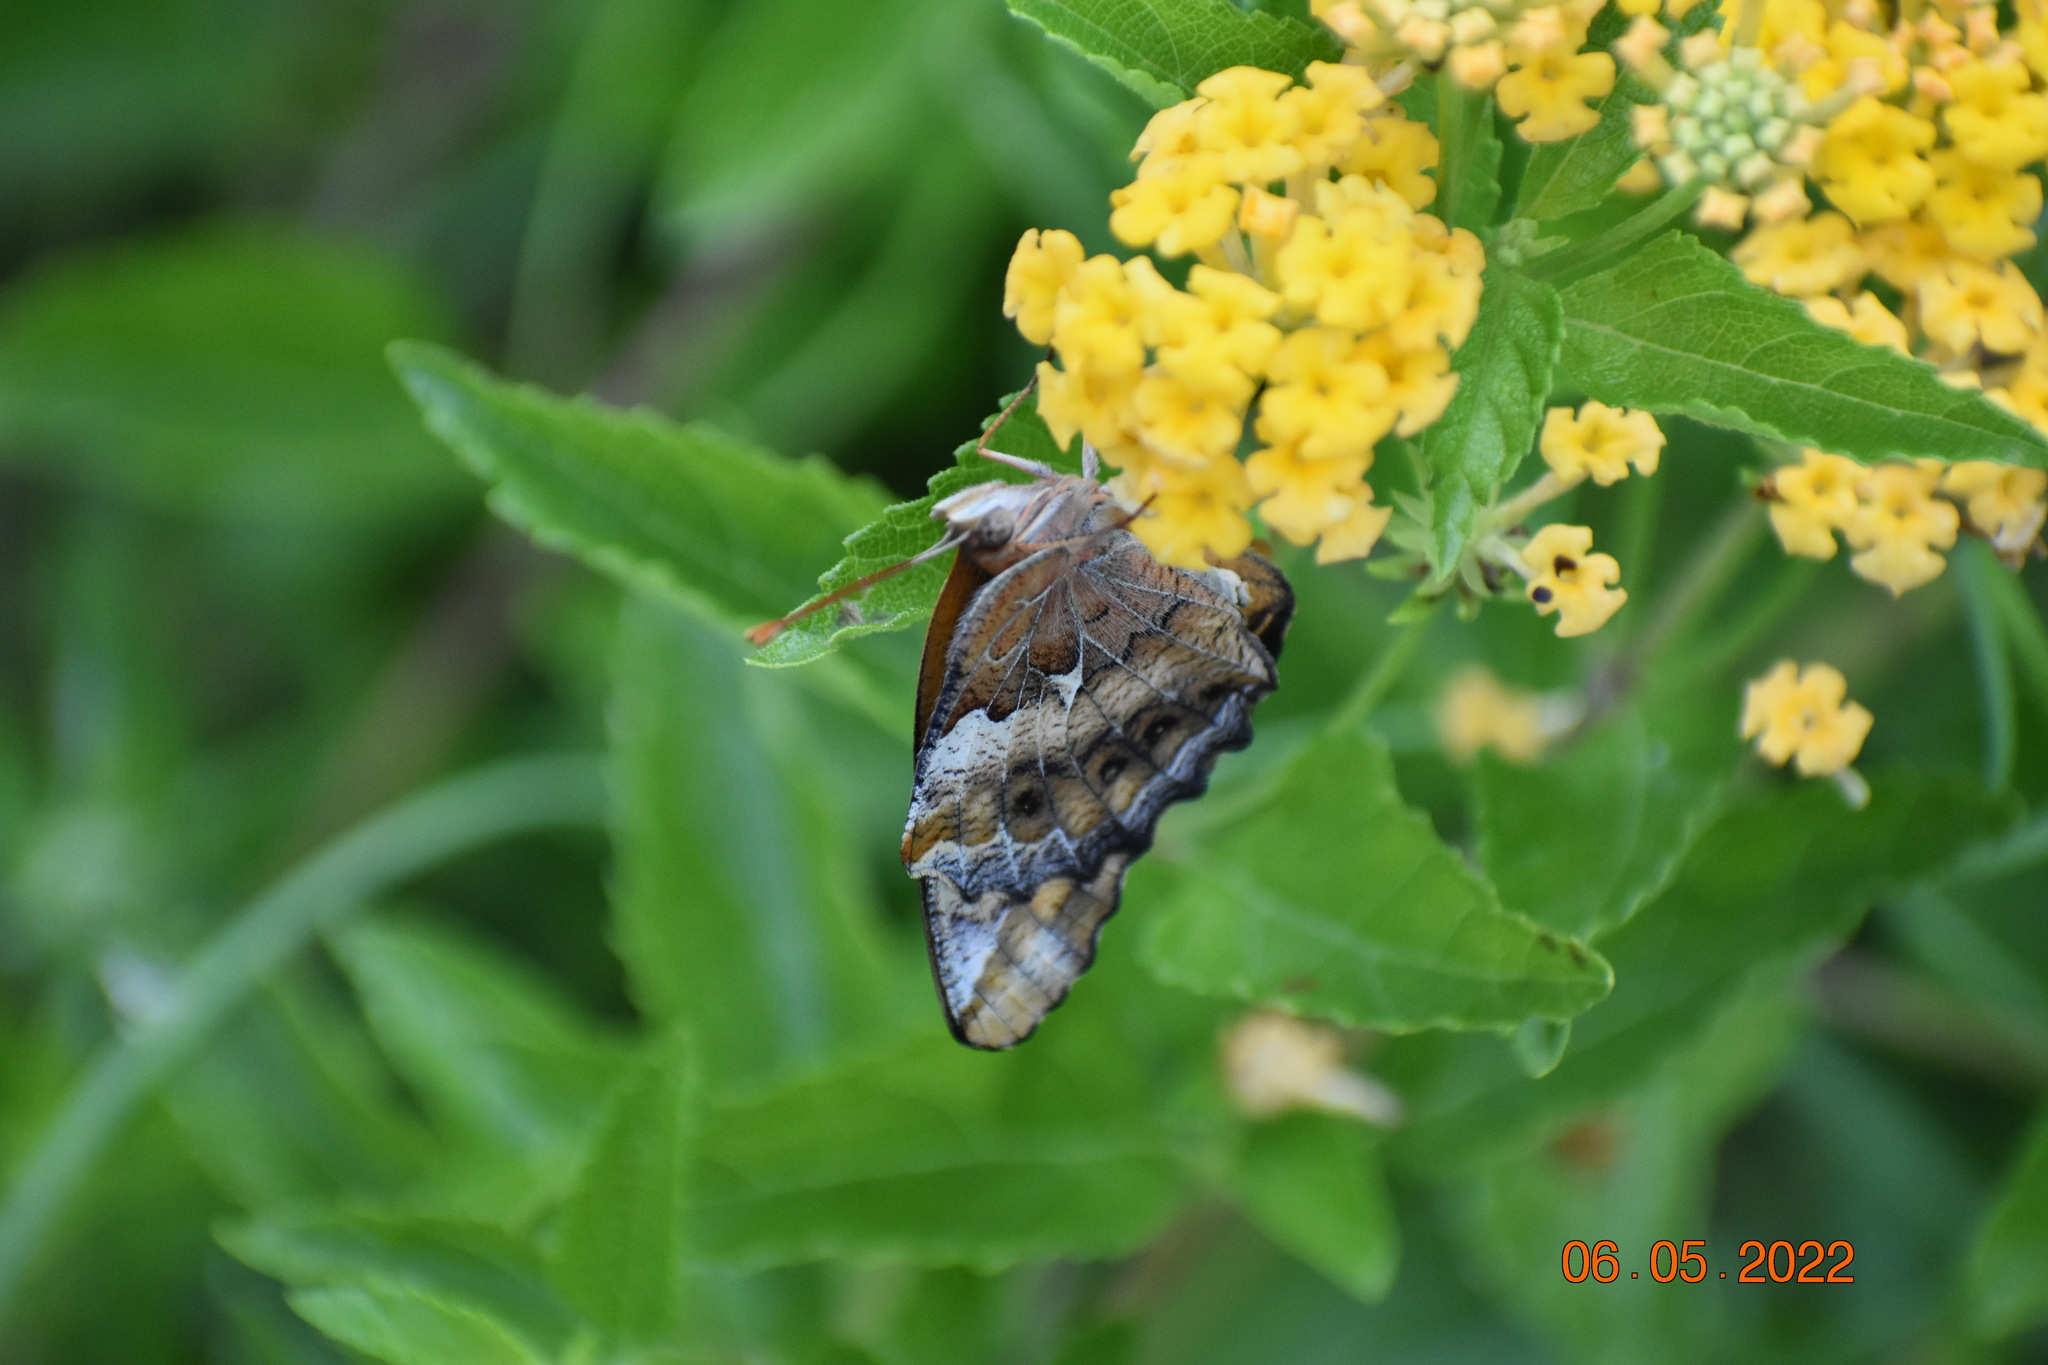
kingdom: Animalia
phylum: Arthropoda
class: Insecta
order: Lepidoptera
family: Nymphalidae
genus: Euptoieta
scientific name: Euptoieta claudia
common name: Variegated fritillary
